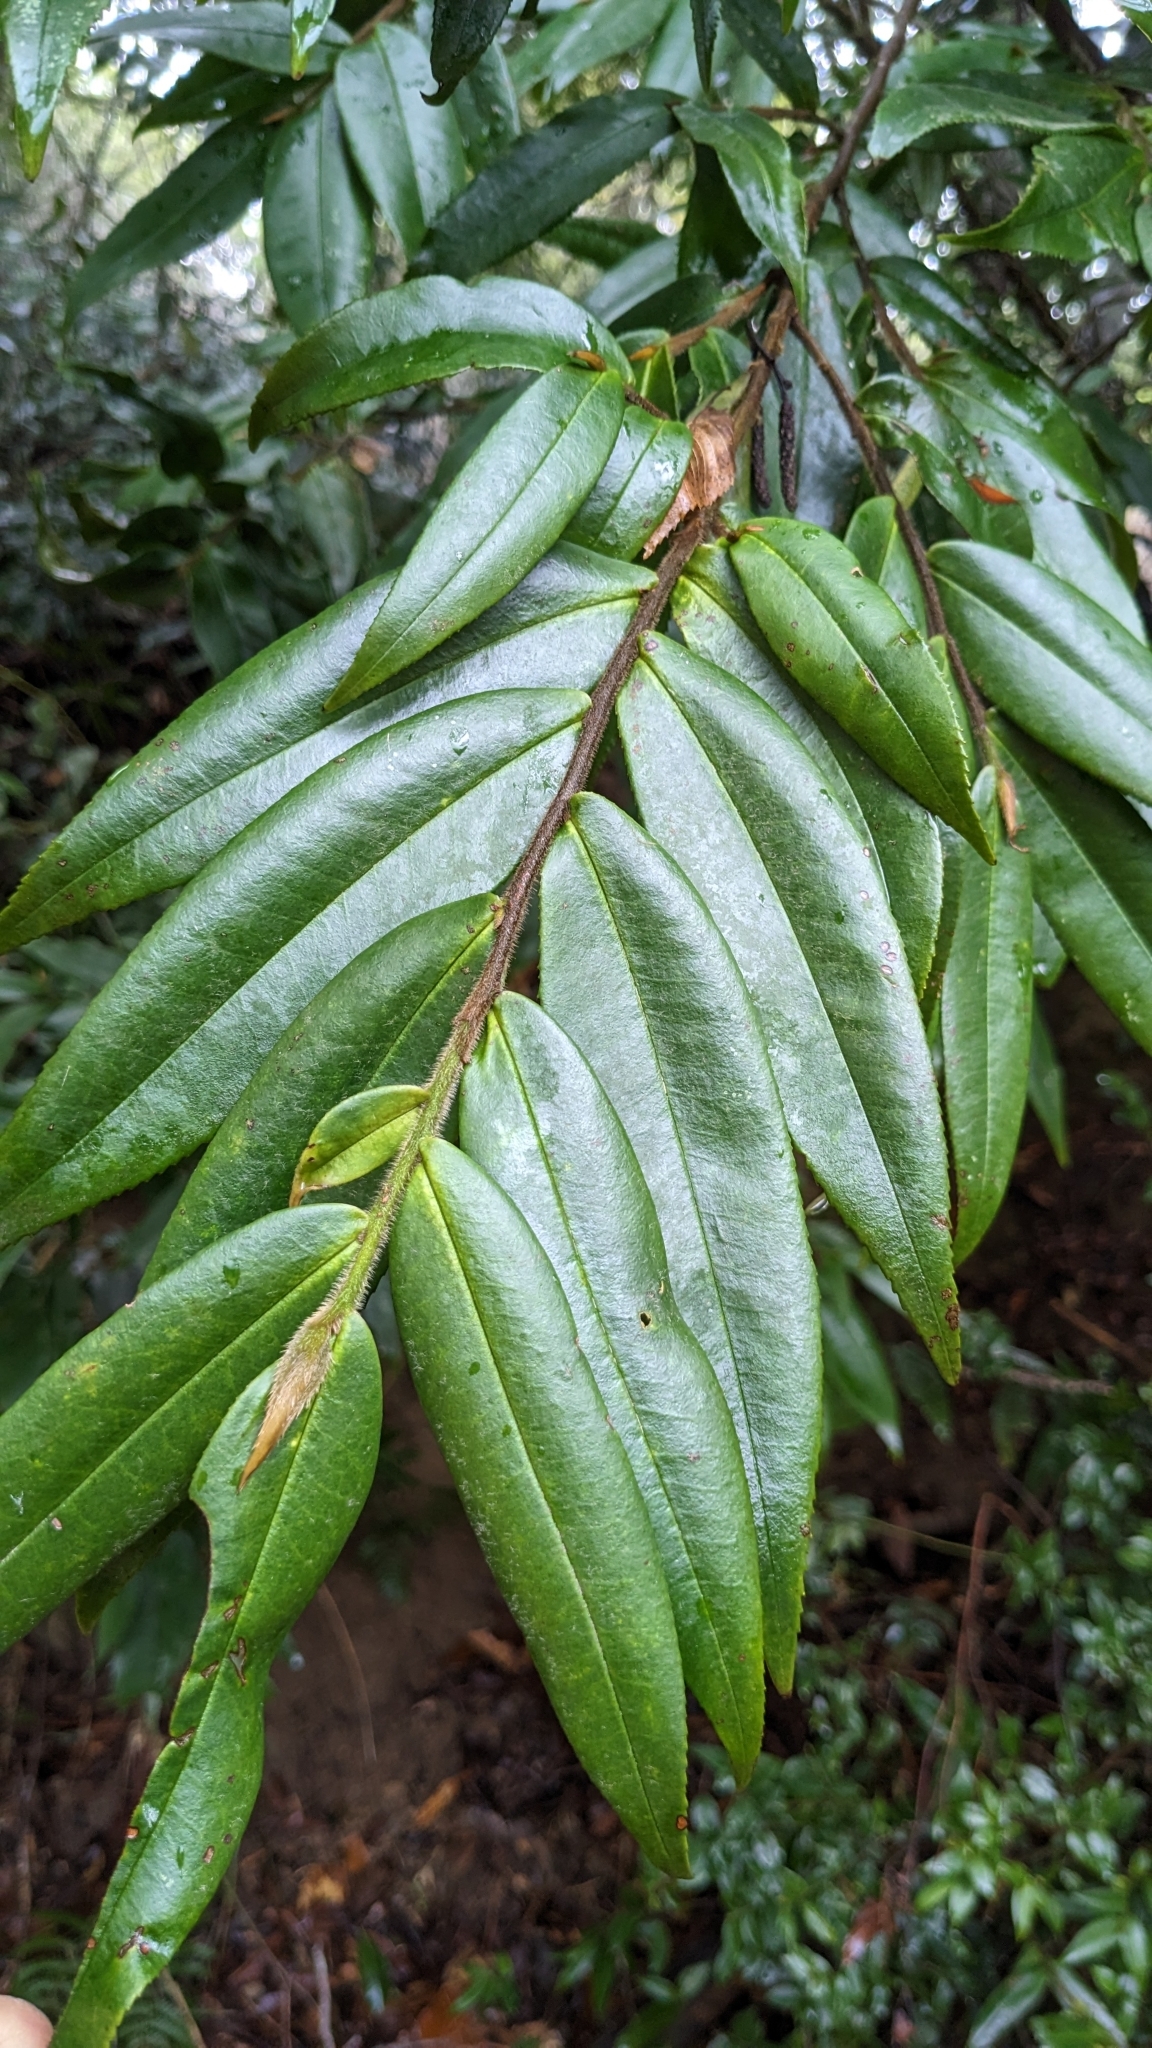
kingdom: Plantae
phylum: Tracheophyta
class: Magnoliopsida
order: Ericales
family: Pentaphylacaceae
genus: Eurya
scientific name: Eurya strigillosa
